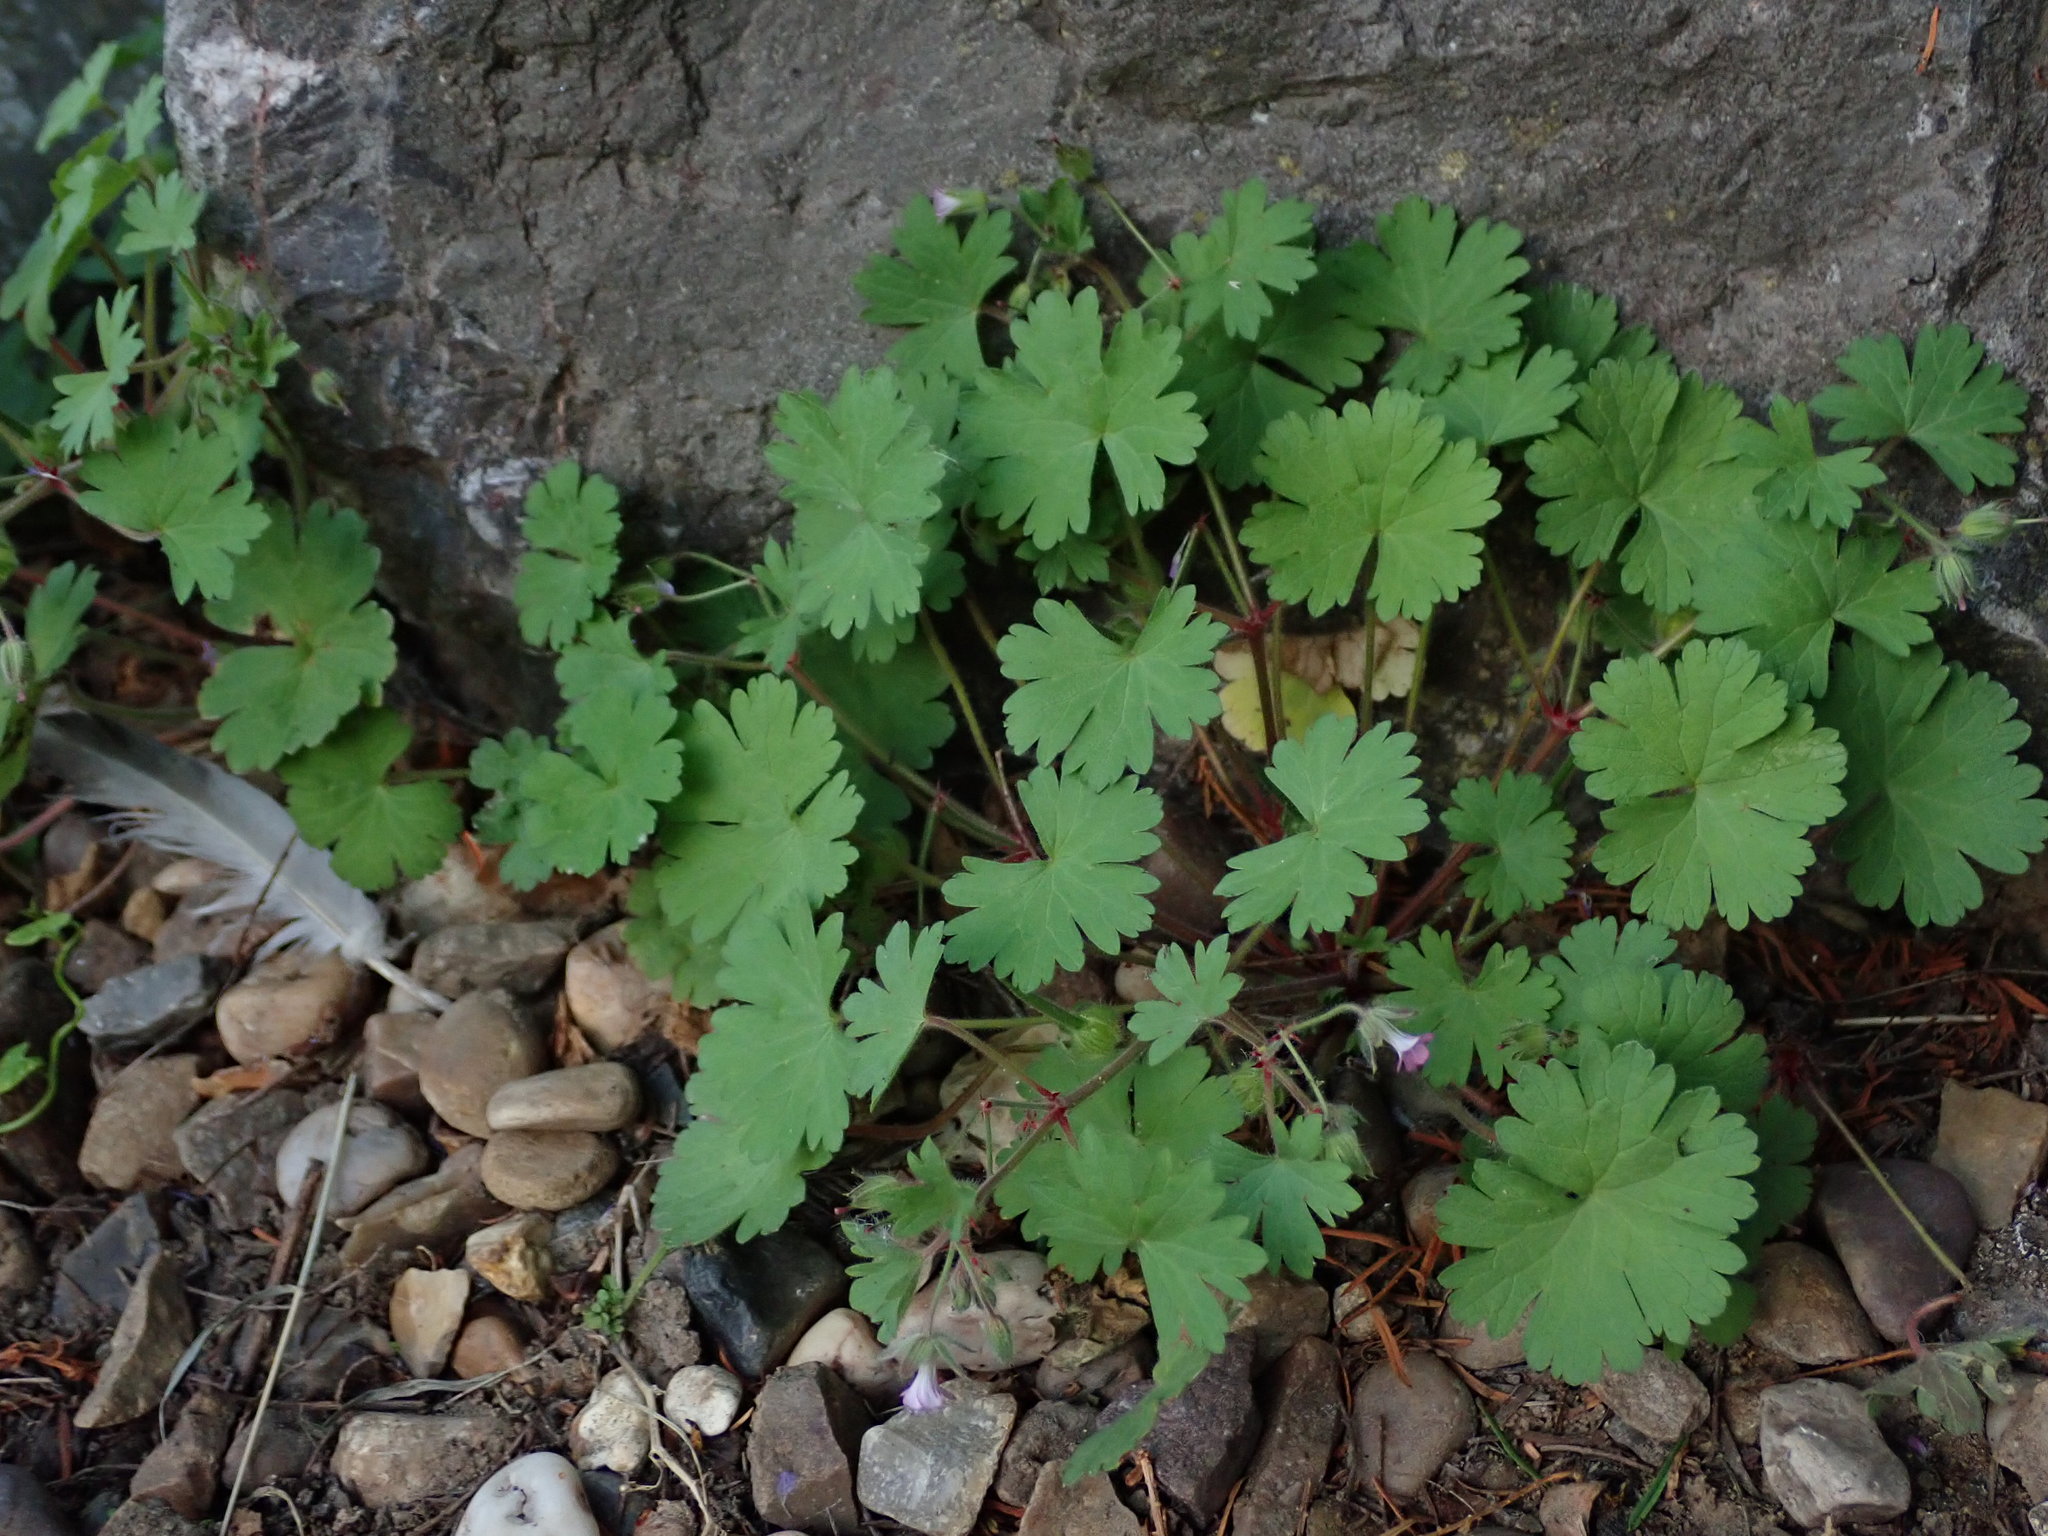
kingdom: Plantae
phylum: Tracheophyta
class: Magnoliopsida
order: Geraniales
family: Geraniaceae
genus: Geranium
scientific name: Geranium rotundifolium
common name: Round-leaved crane's-bill
